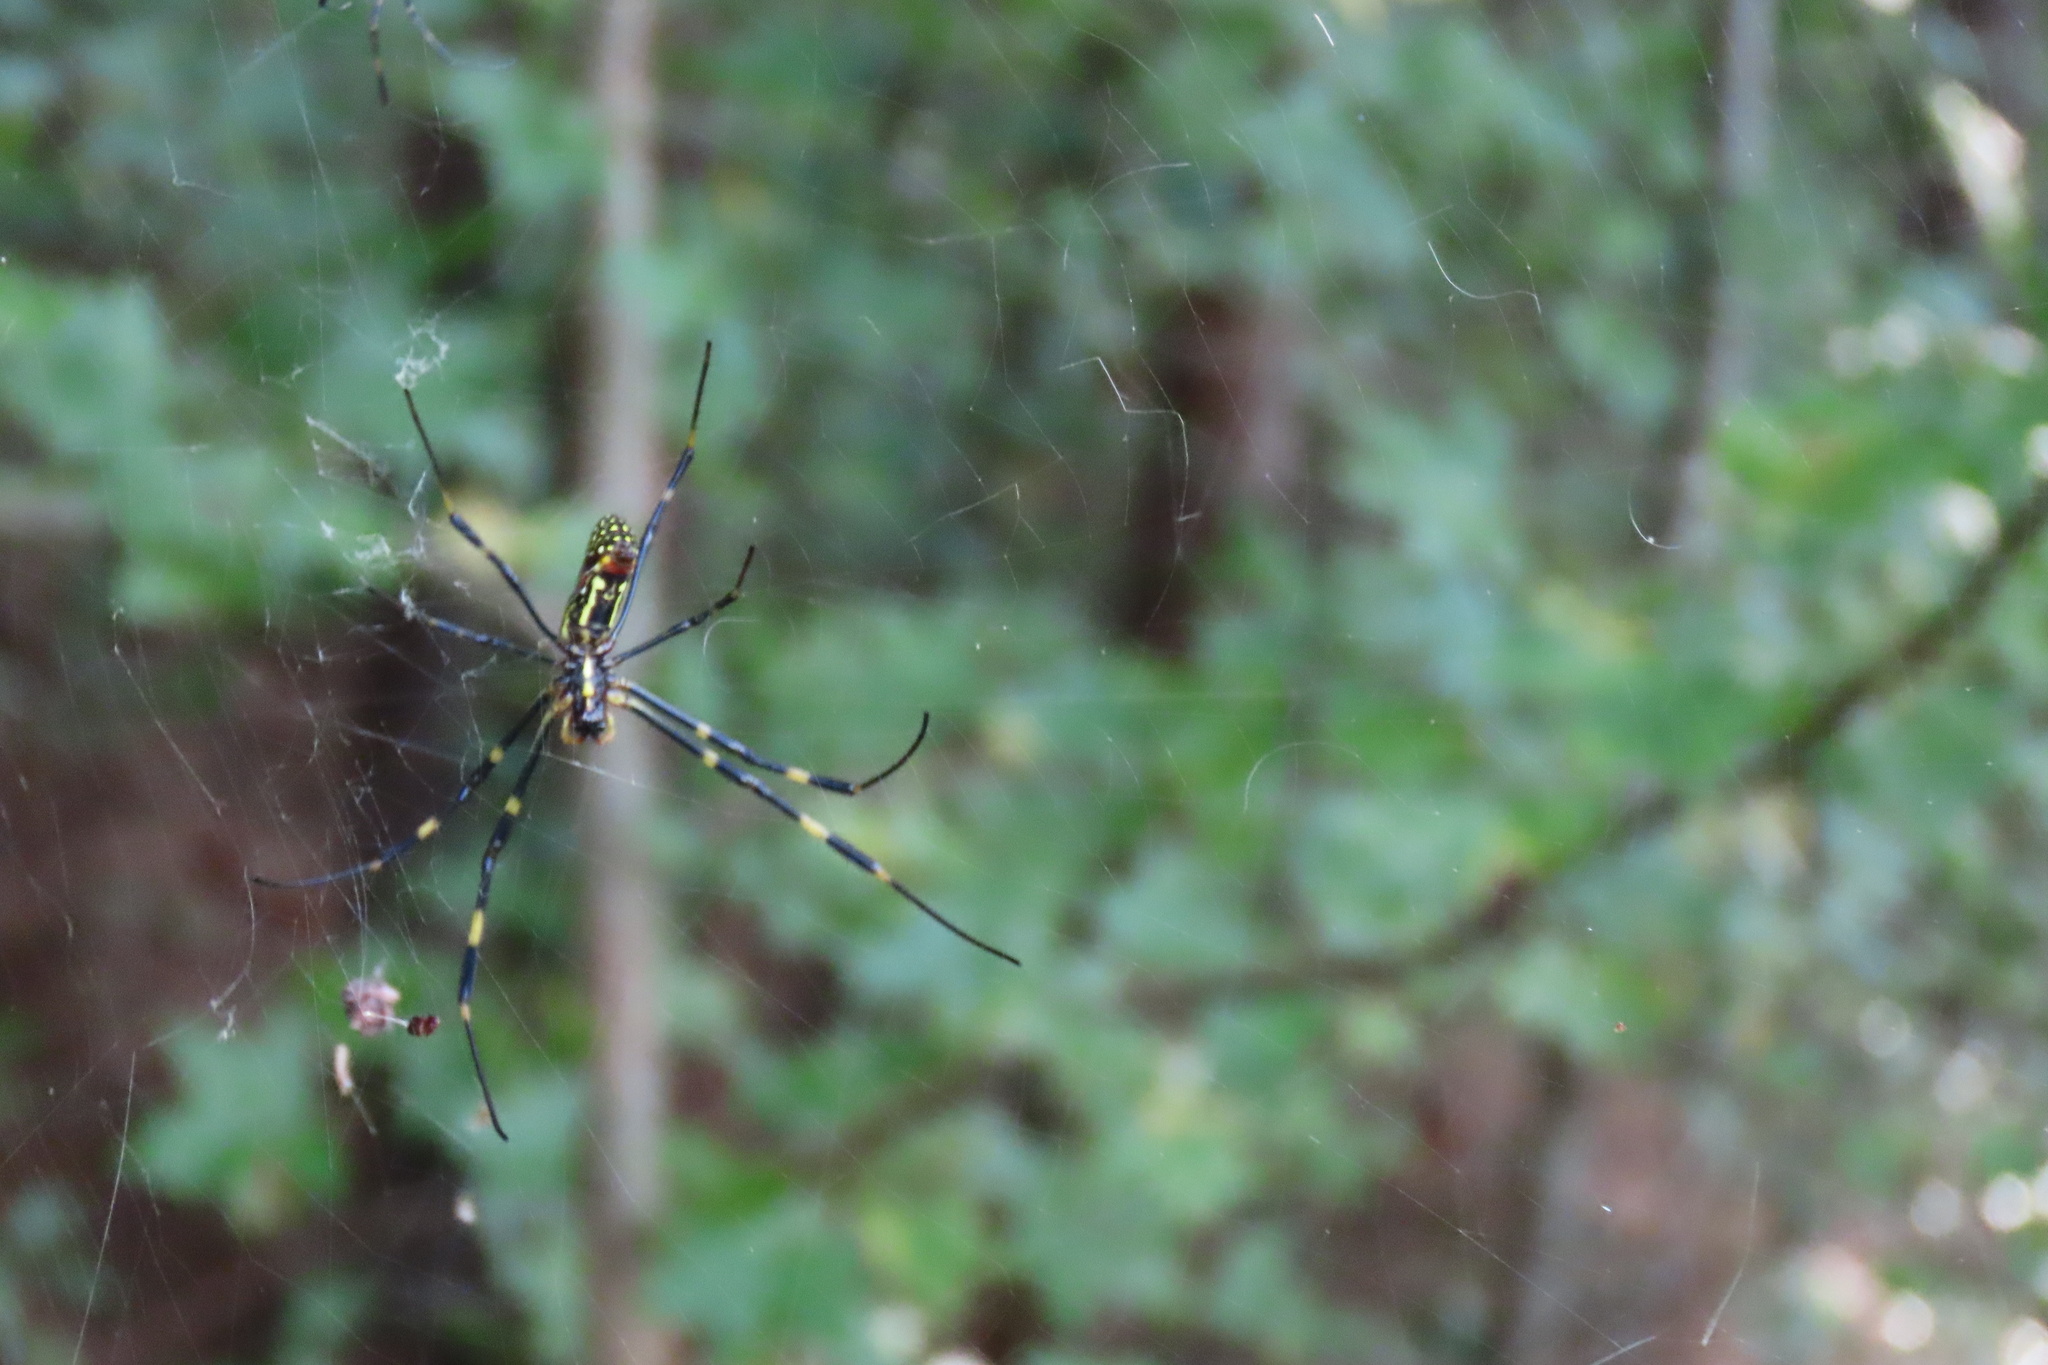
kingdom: Animalia
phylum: Arthropoda
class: Arachnida
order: Araneae
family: Araneidae
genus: Trichonephila
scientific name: Trichonephila clavata
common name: Jorō spider
